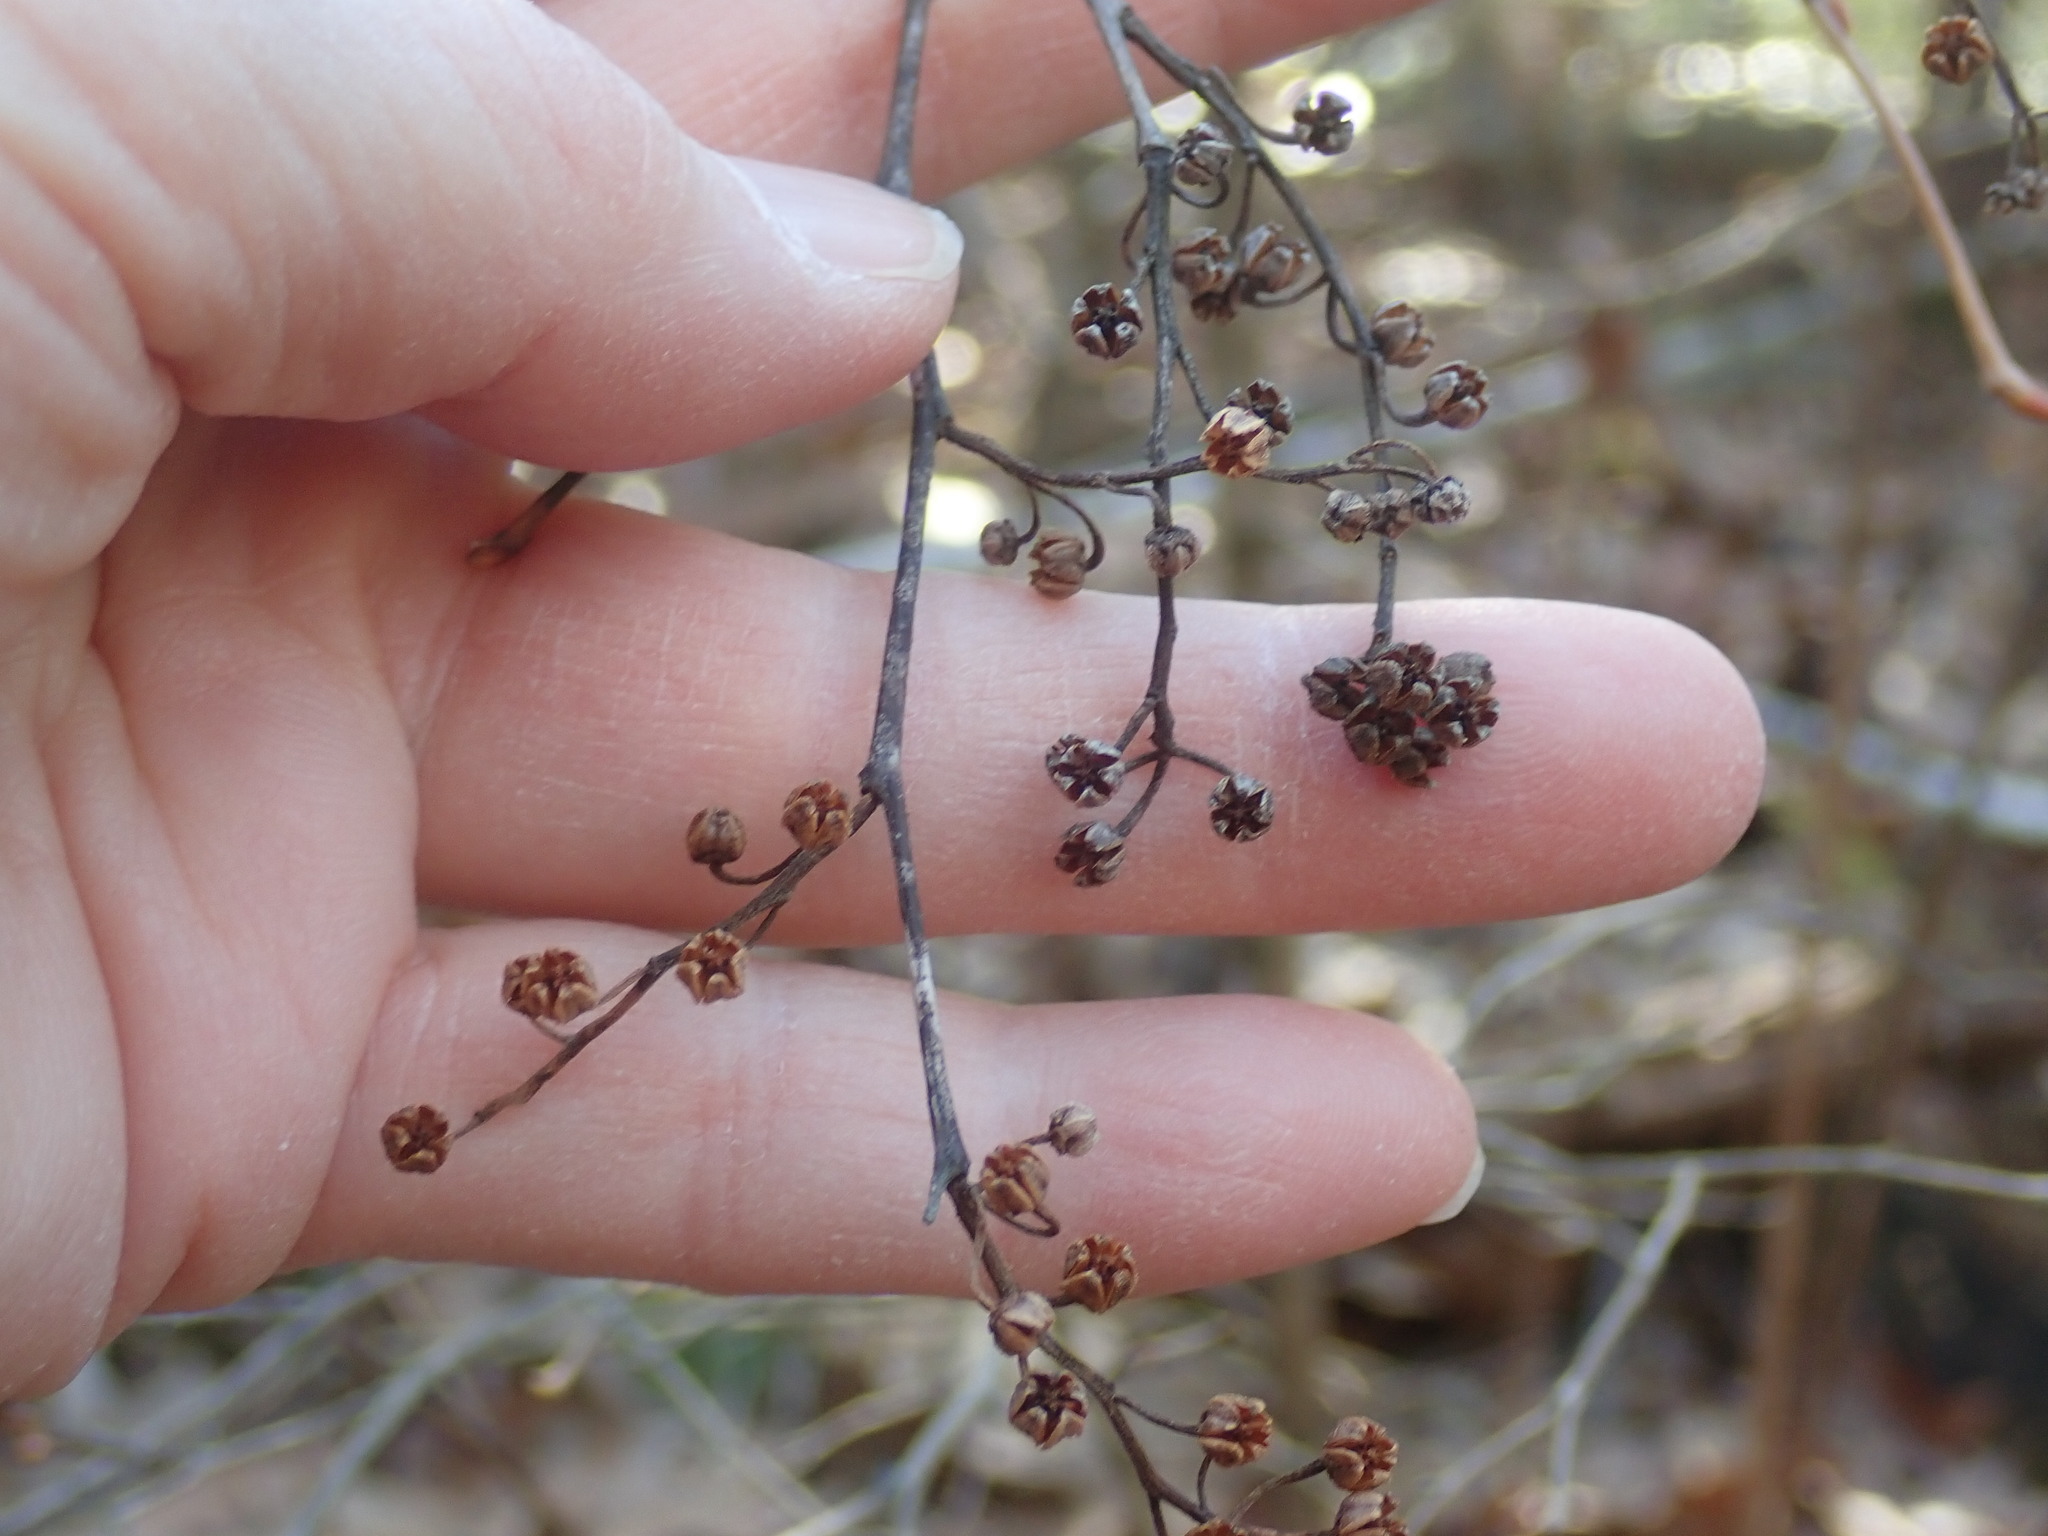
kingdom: Plantae
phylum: Tracheophyta
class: Magnoliopsida
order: Ericales
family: Ericaceae
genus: Lyonia
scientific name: Lyonia ligustrina
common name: Maleberry
